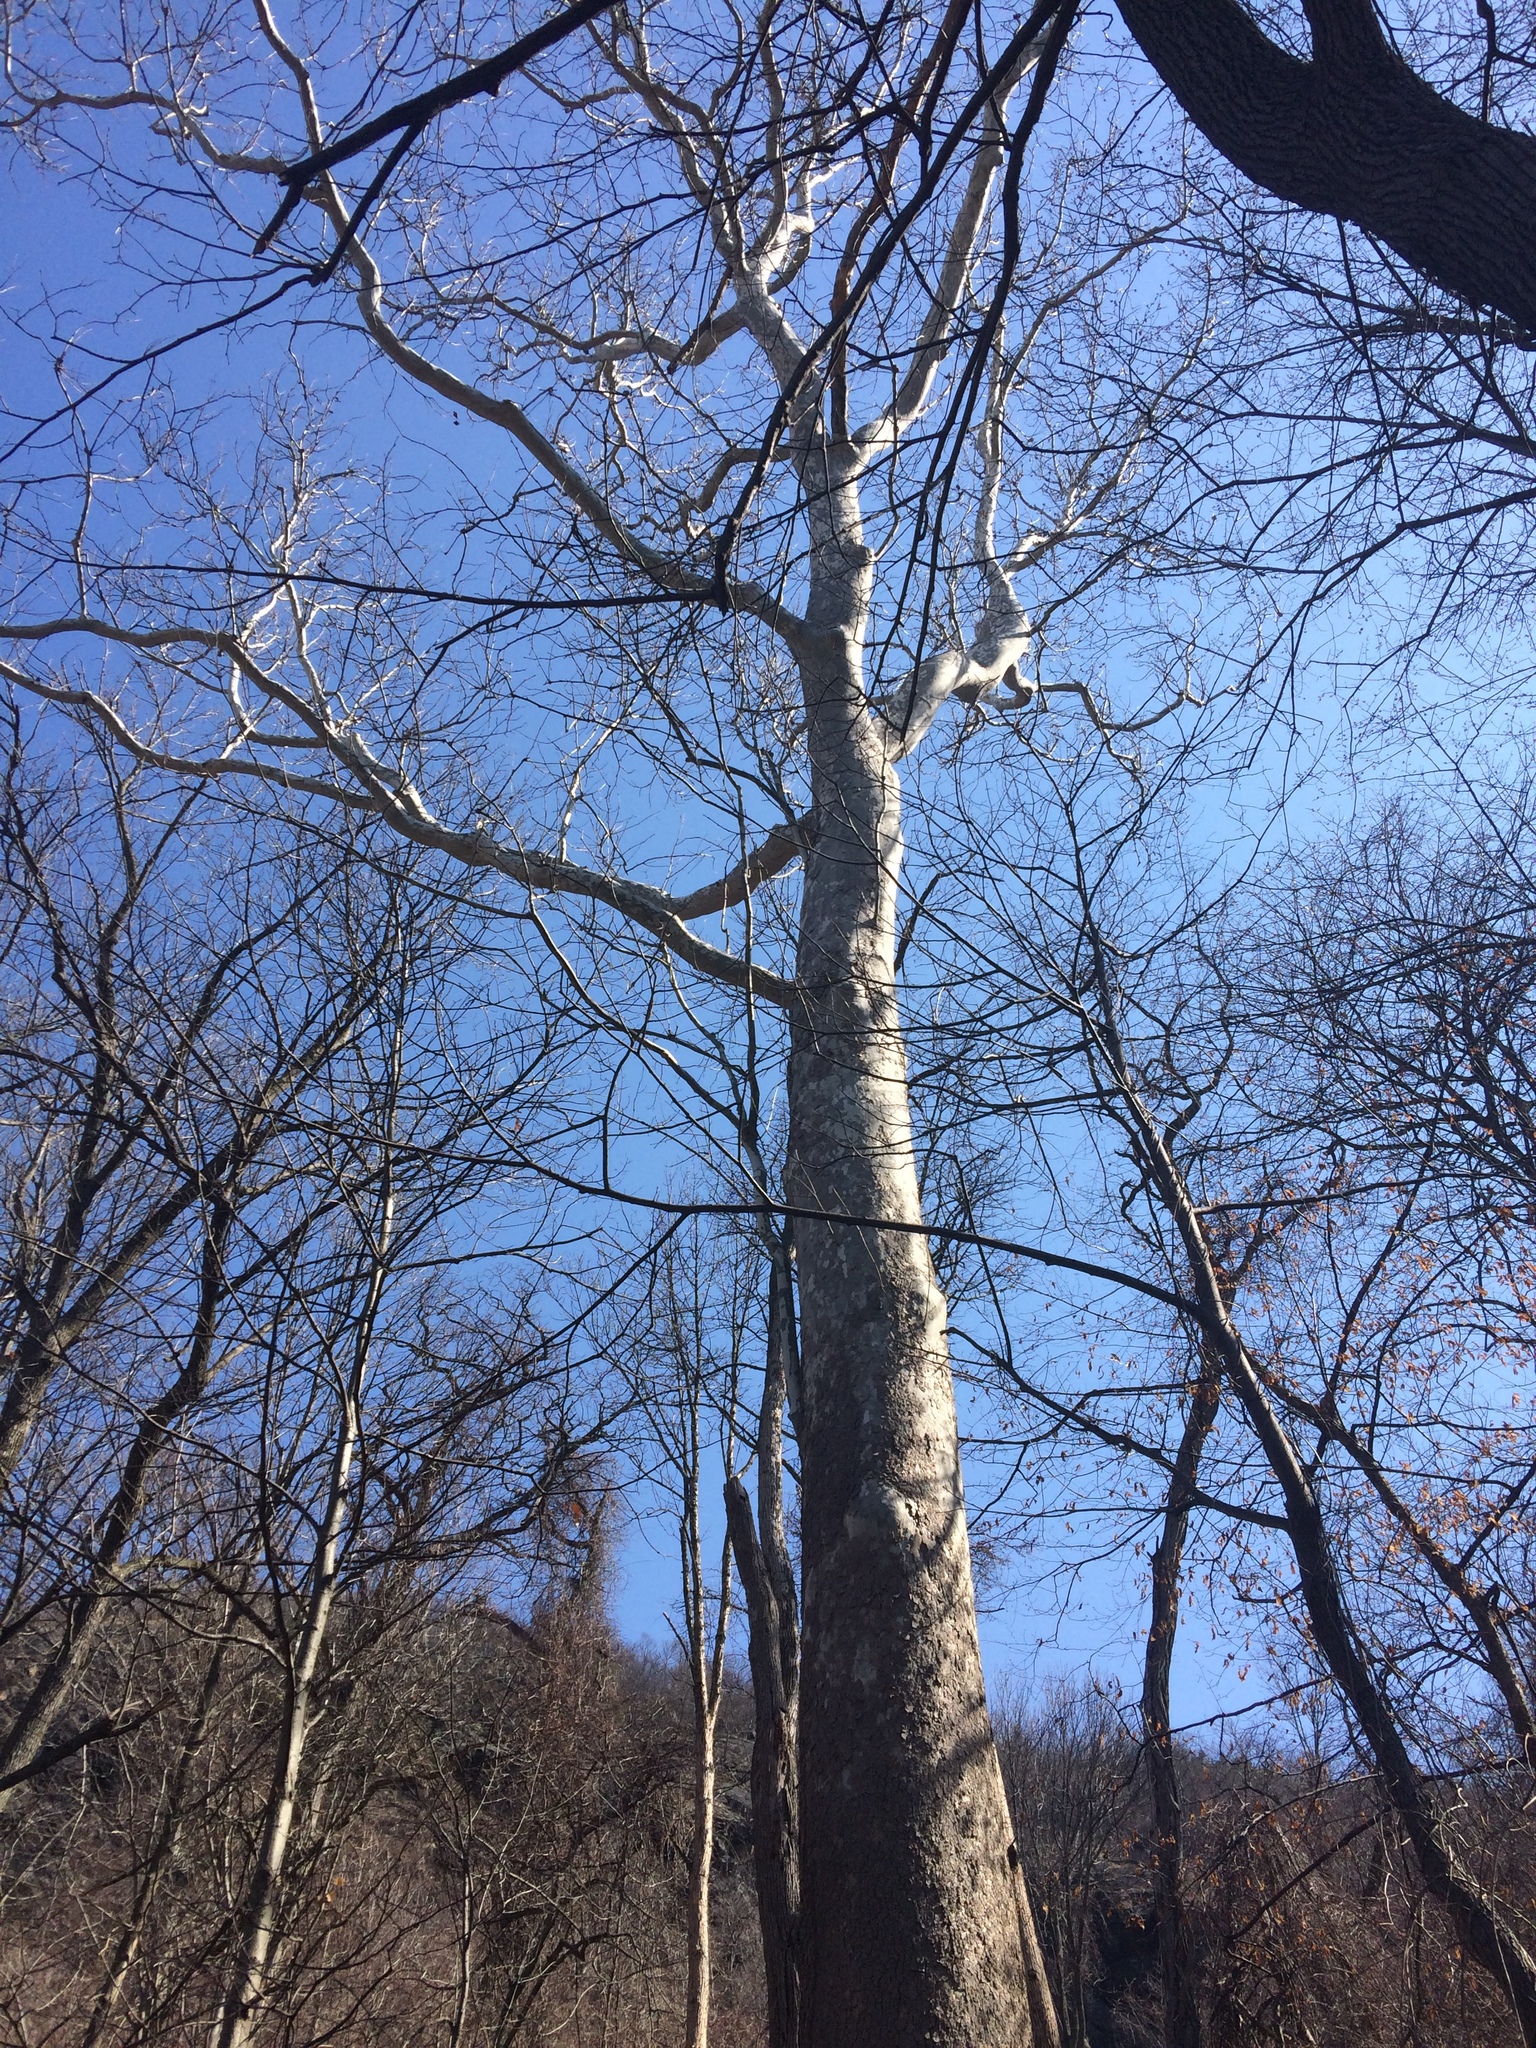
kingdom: Plantae
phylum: Tracheophyta
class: Magnoliopsida
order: Proteales
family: Platanaceae
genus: Platanus
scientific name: Platanus occidentalis
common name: American sycamore
